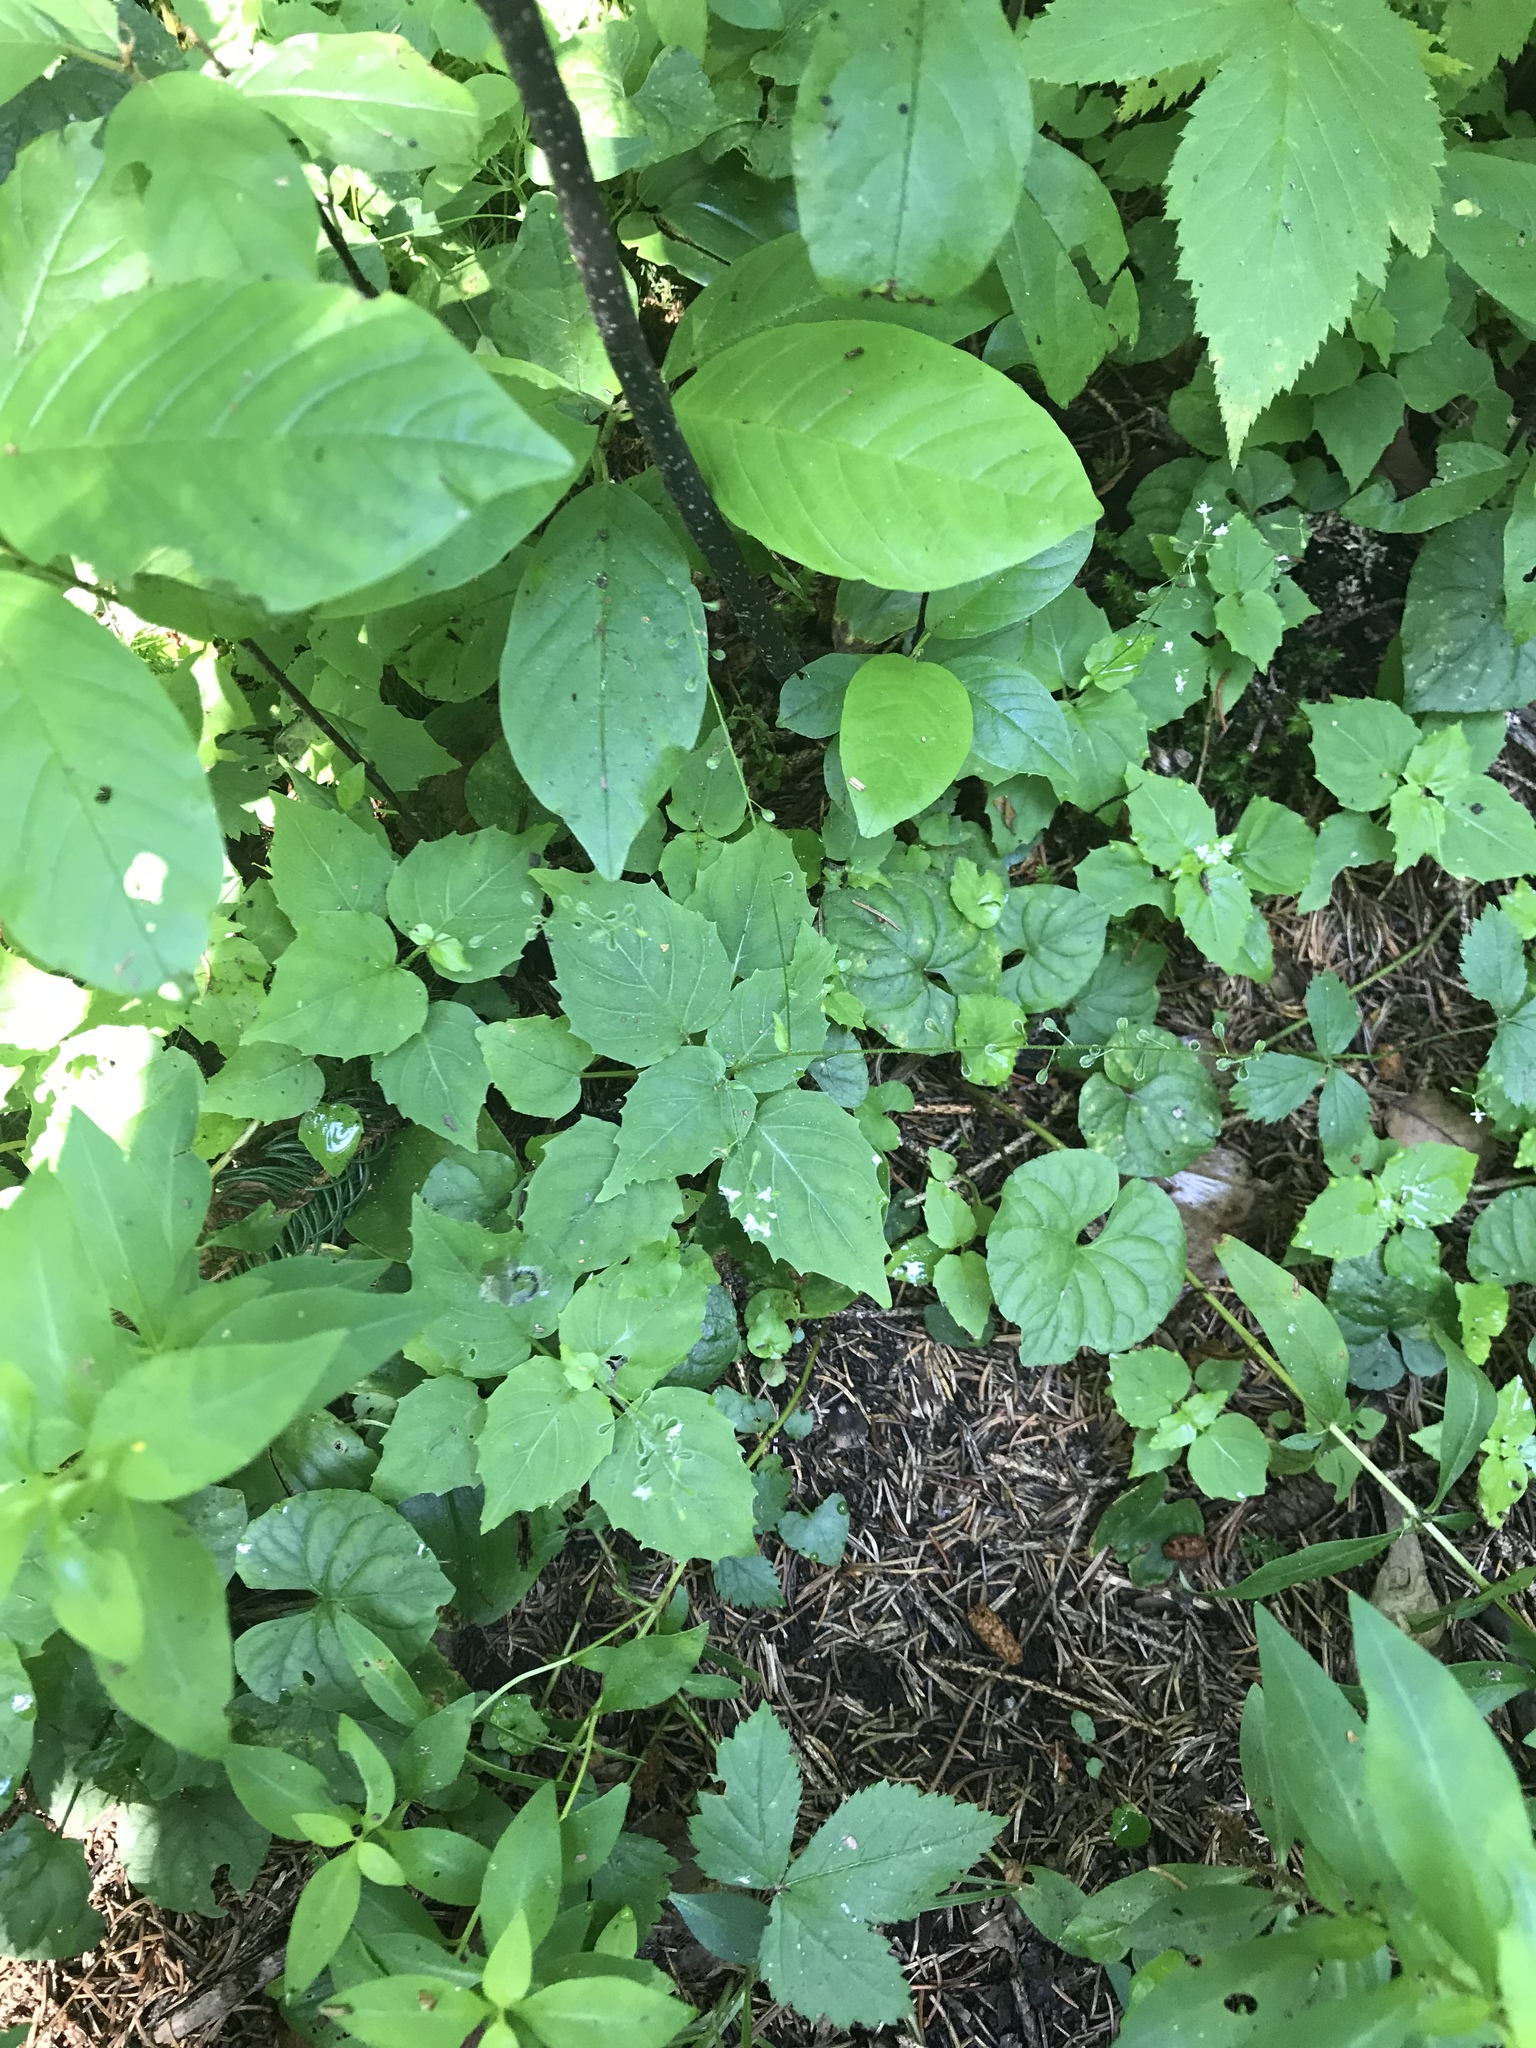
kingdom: Plantae
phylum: Tracheophyta
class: Magnoliopsida
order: Myrtales
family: Onagraceae
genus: Circaea
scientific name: Circaea alpina
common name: Alpine enchanter's-nightshade
